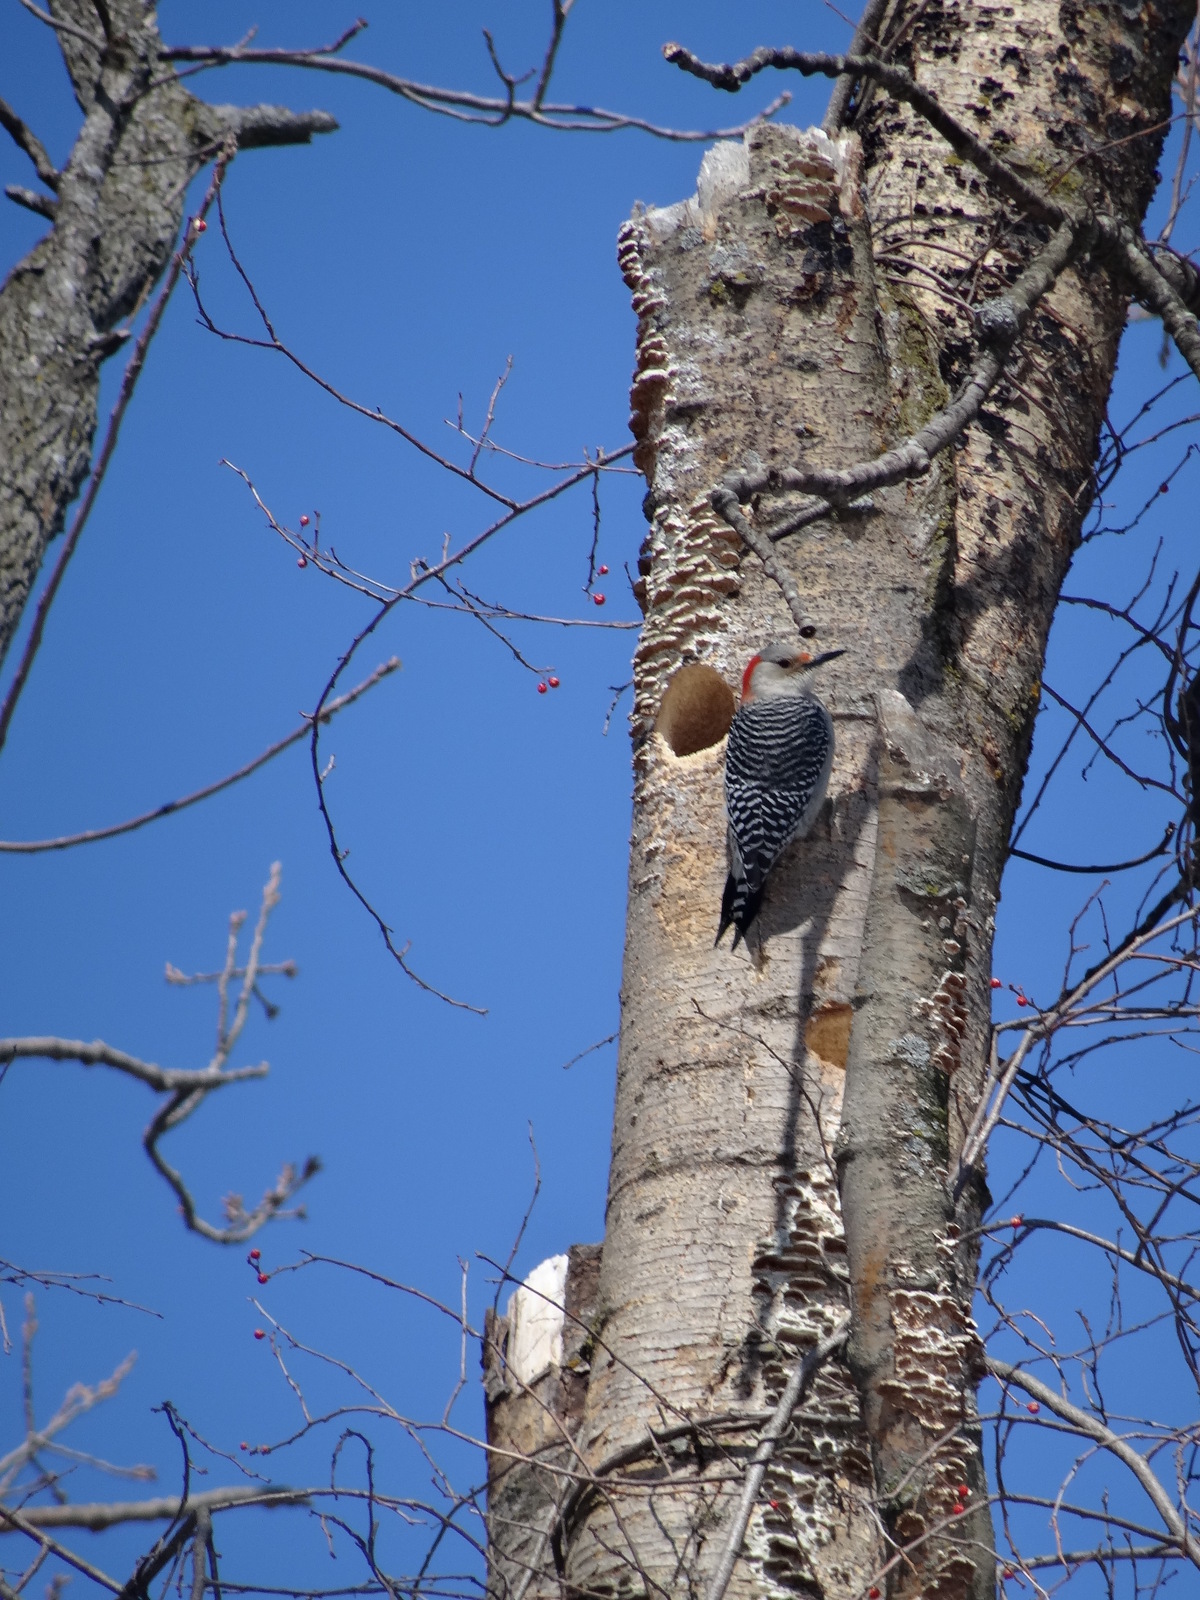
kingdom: Animalia
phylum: Chordata
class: Aves
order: Piciformes
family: Picidae
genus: Melanerpes
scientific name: Melanerpes carolinus
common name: Red-bellied woodpecker
